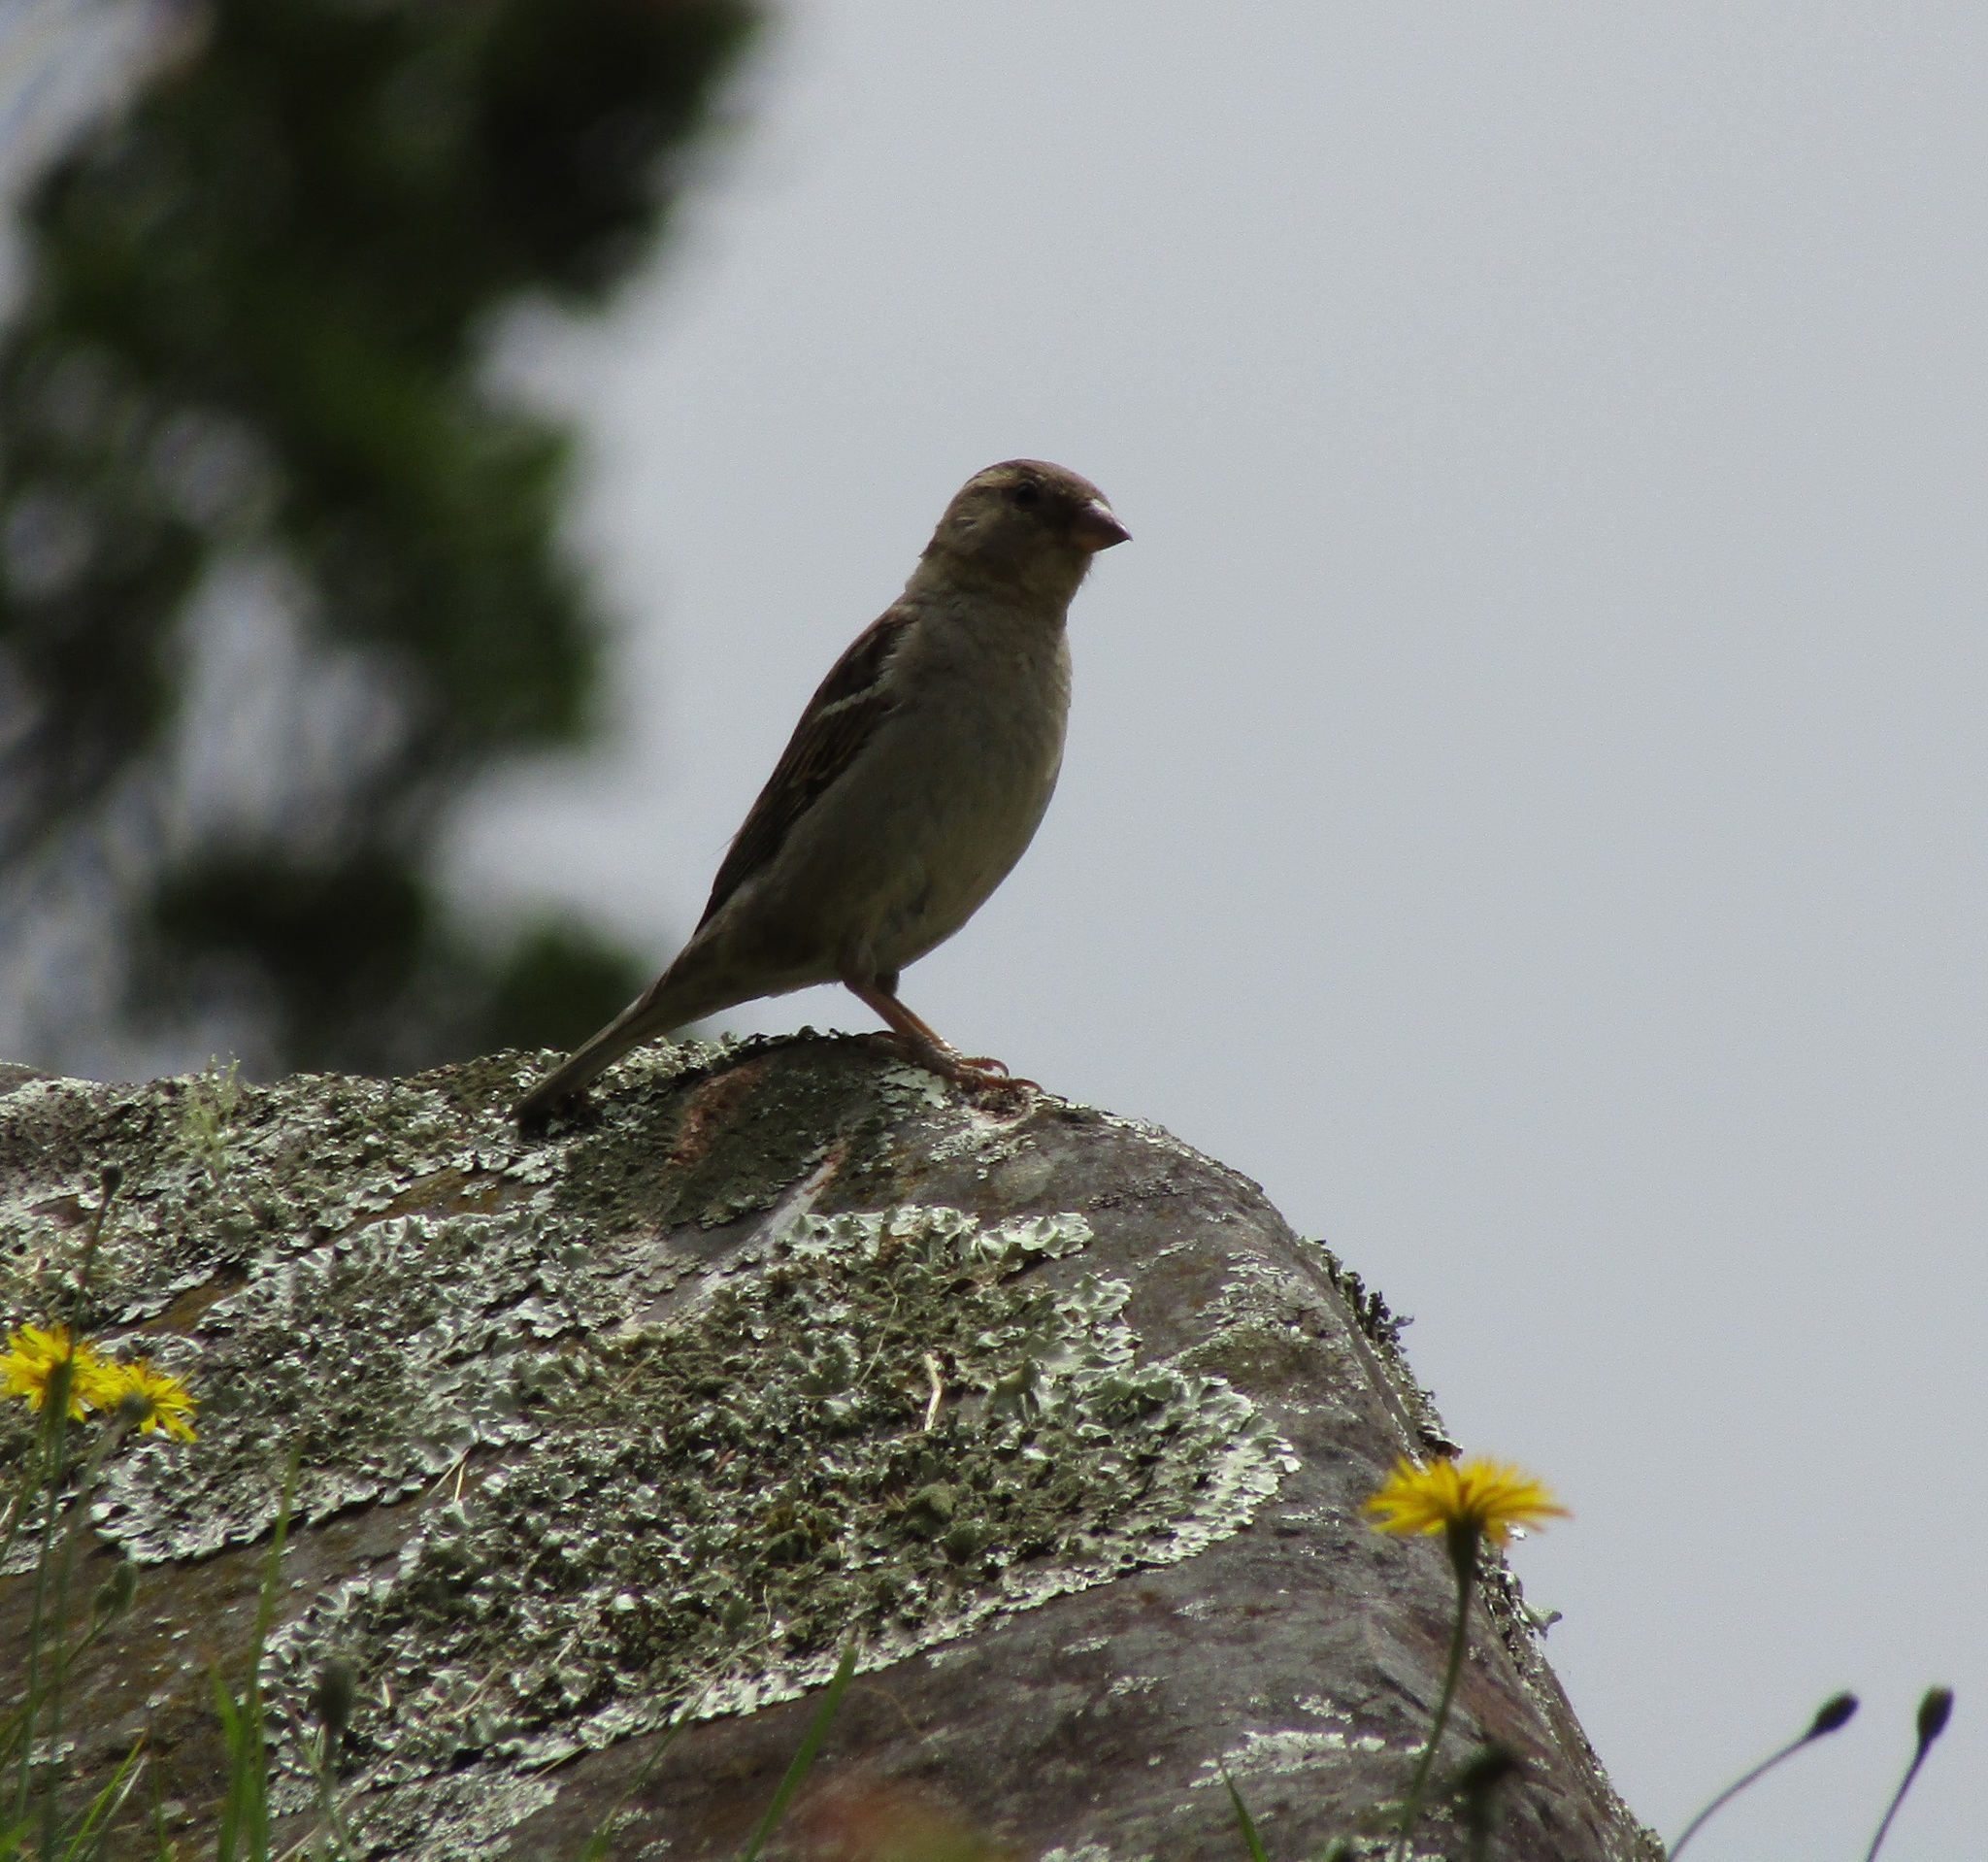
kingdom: Animalia
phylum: Chordata
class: Aves
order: Passeriformes
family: Passeridae
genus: Passer
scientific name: Passer domesticus
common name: House sparrow
